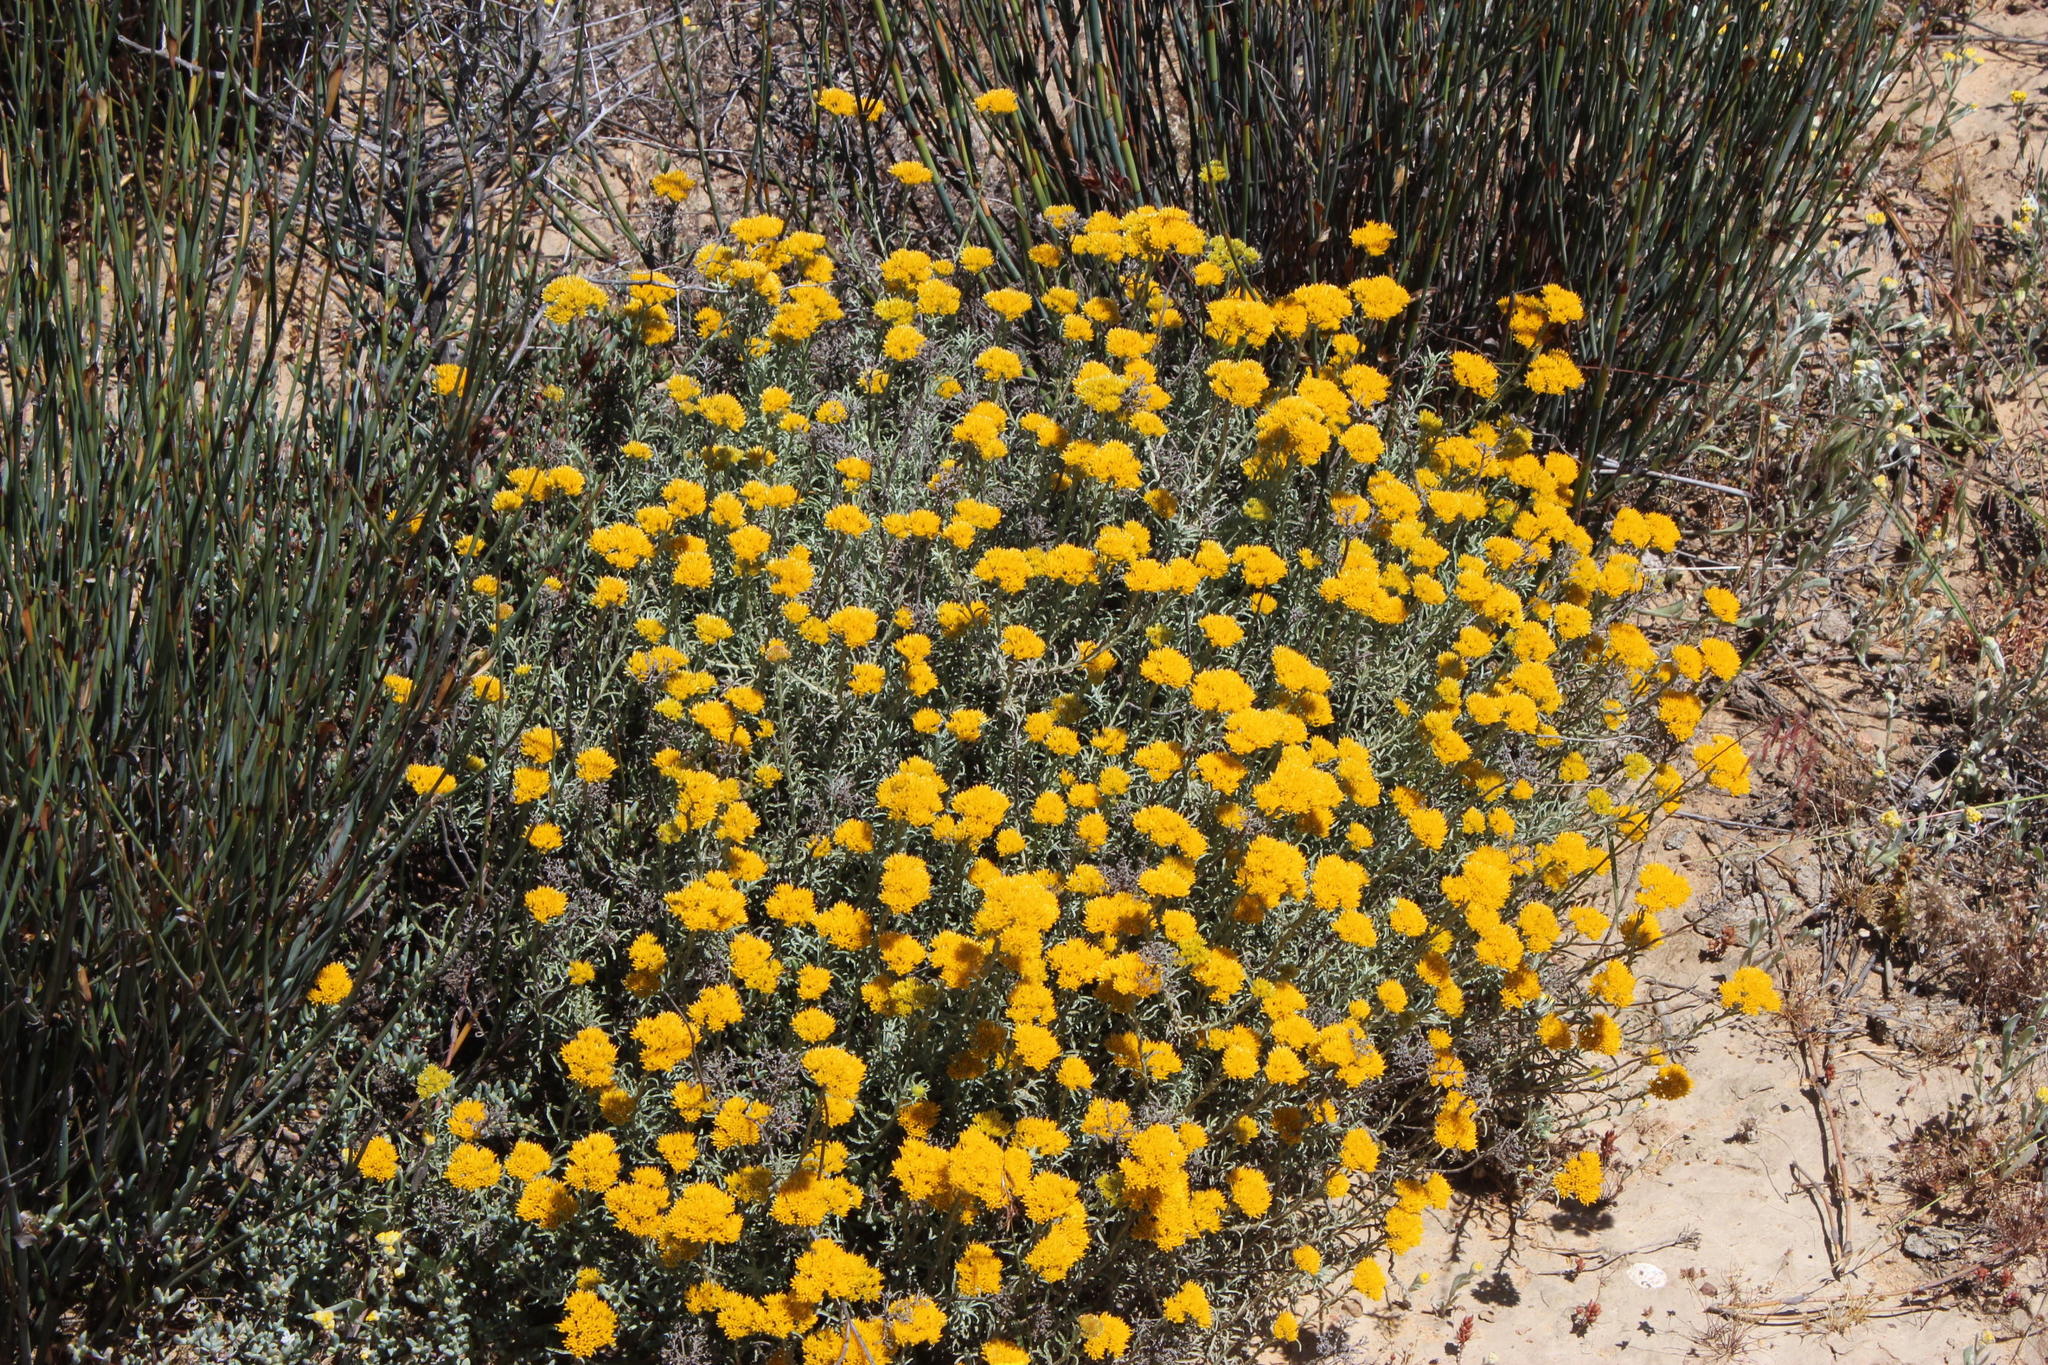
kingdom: Plantae
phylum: Tracheophyta
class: Magnoliopsida
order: Asterales
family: Asteraceae
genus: Helichrysum
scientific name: Helichrysum rutilans
